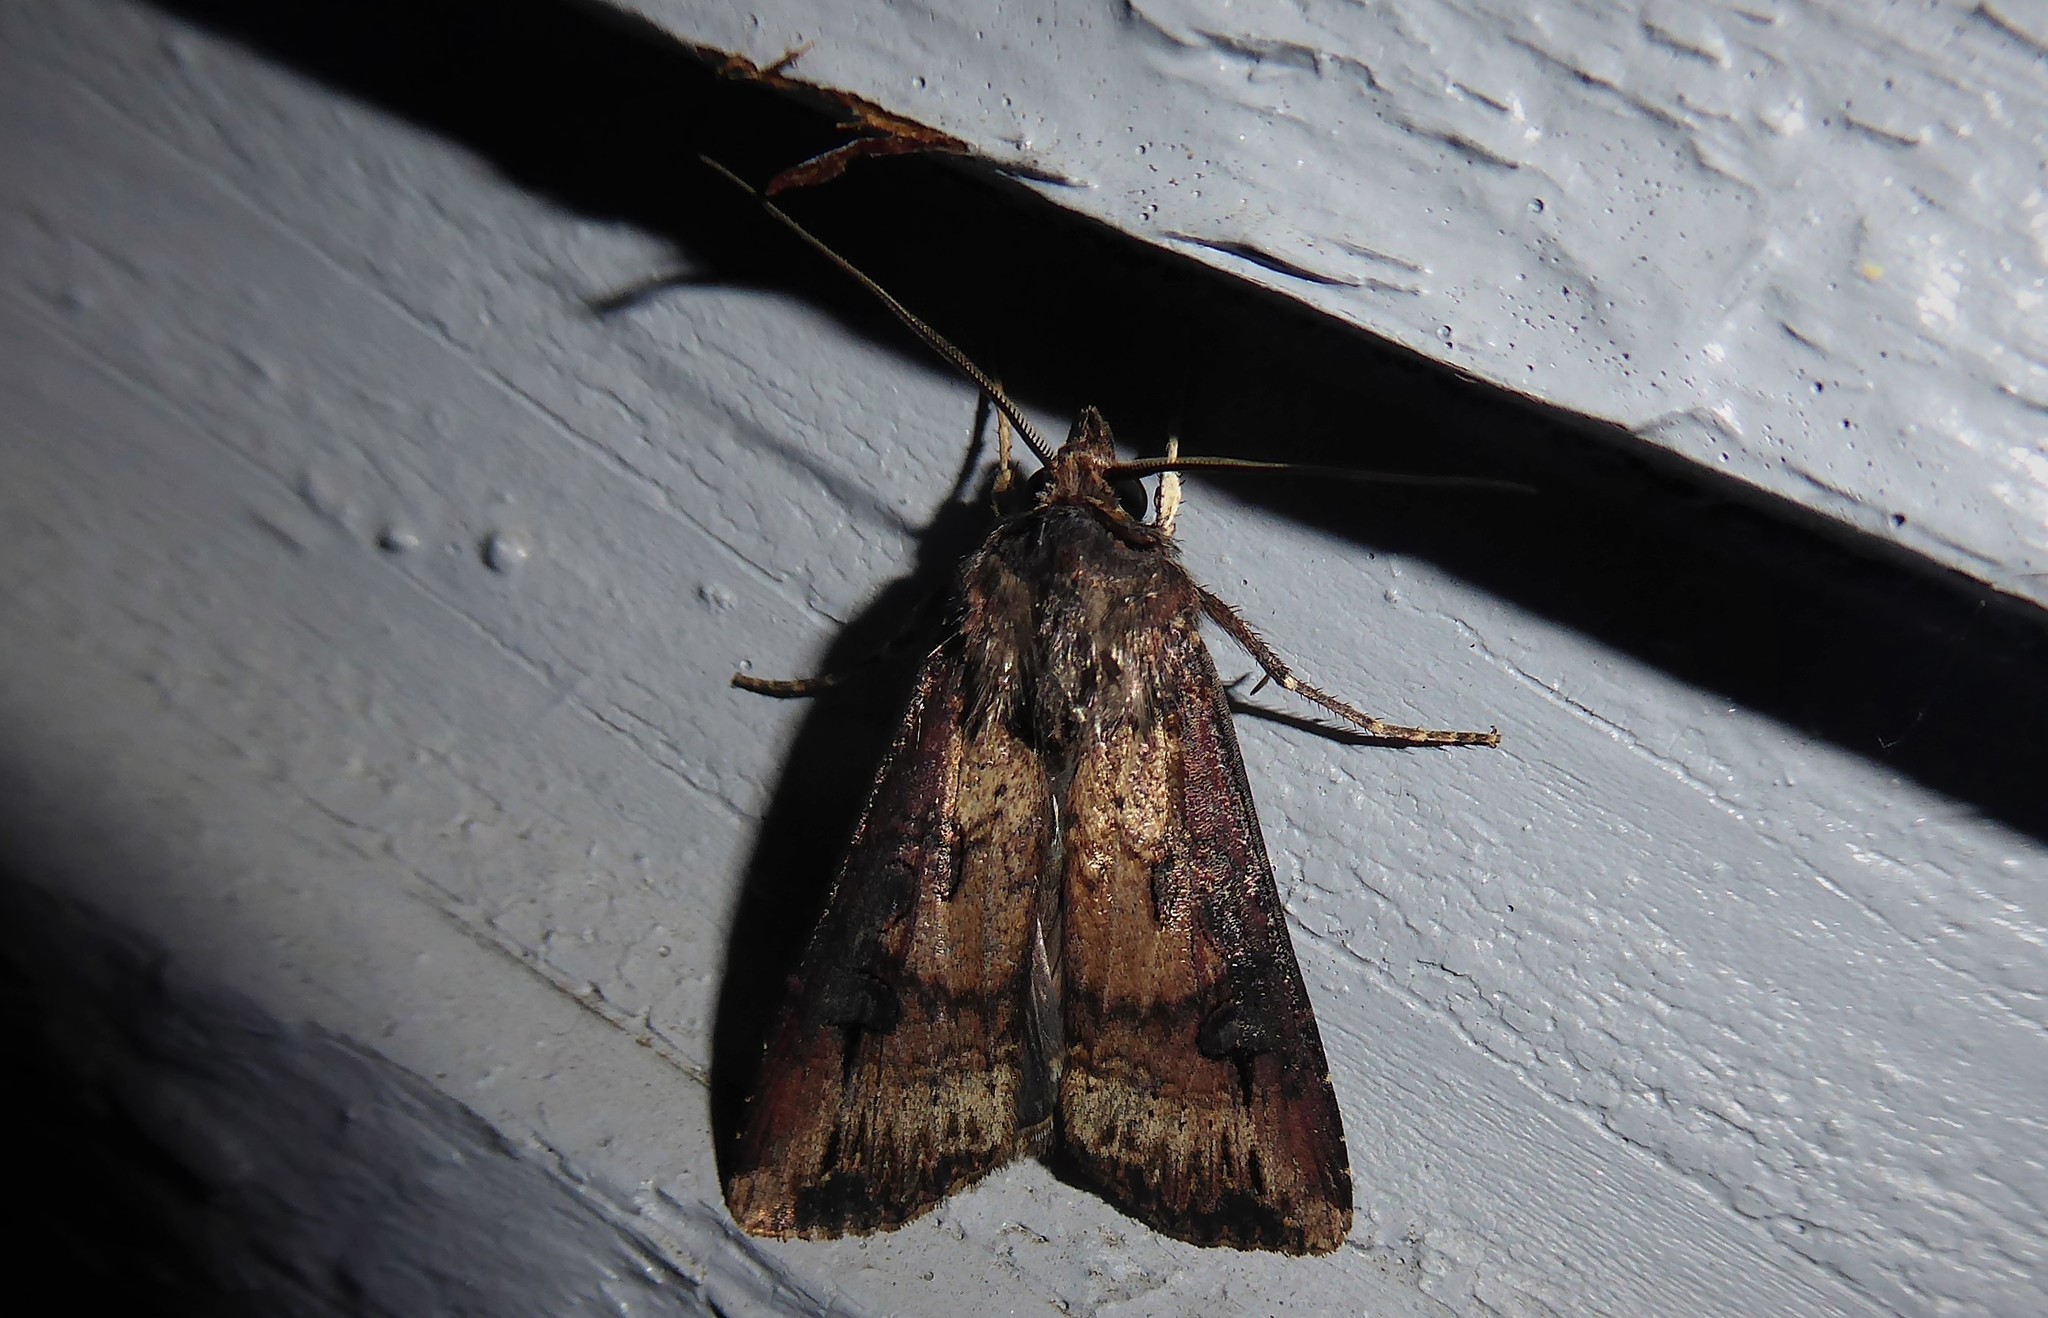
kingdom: Animalia
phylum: Arthropoda
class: Insecta
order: Lepidoptera
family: Noctuidae
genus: Agrotis
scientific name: Agrotis ipsilon
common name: Dark sword-grass
